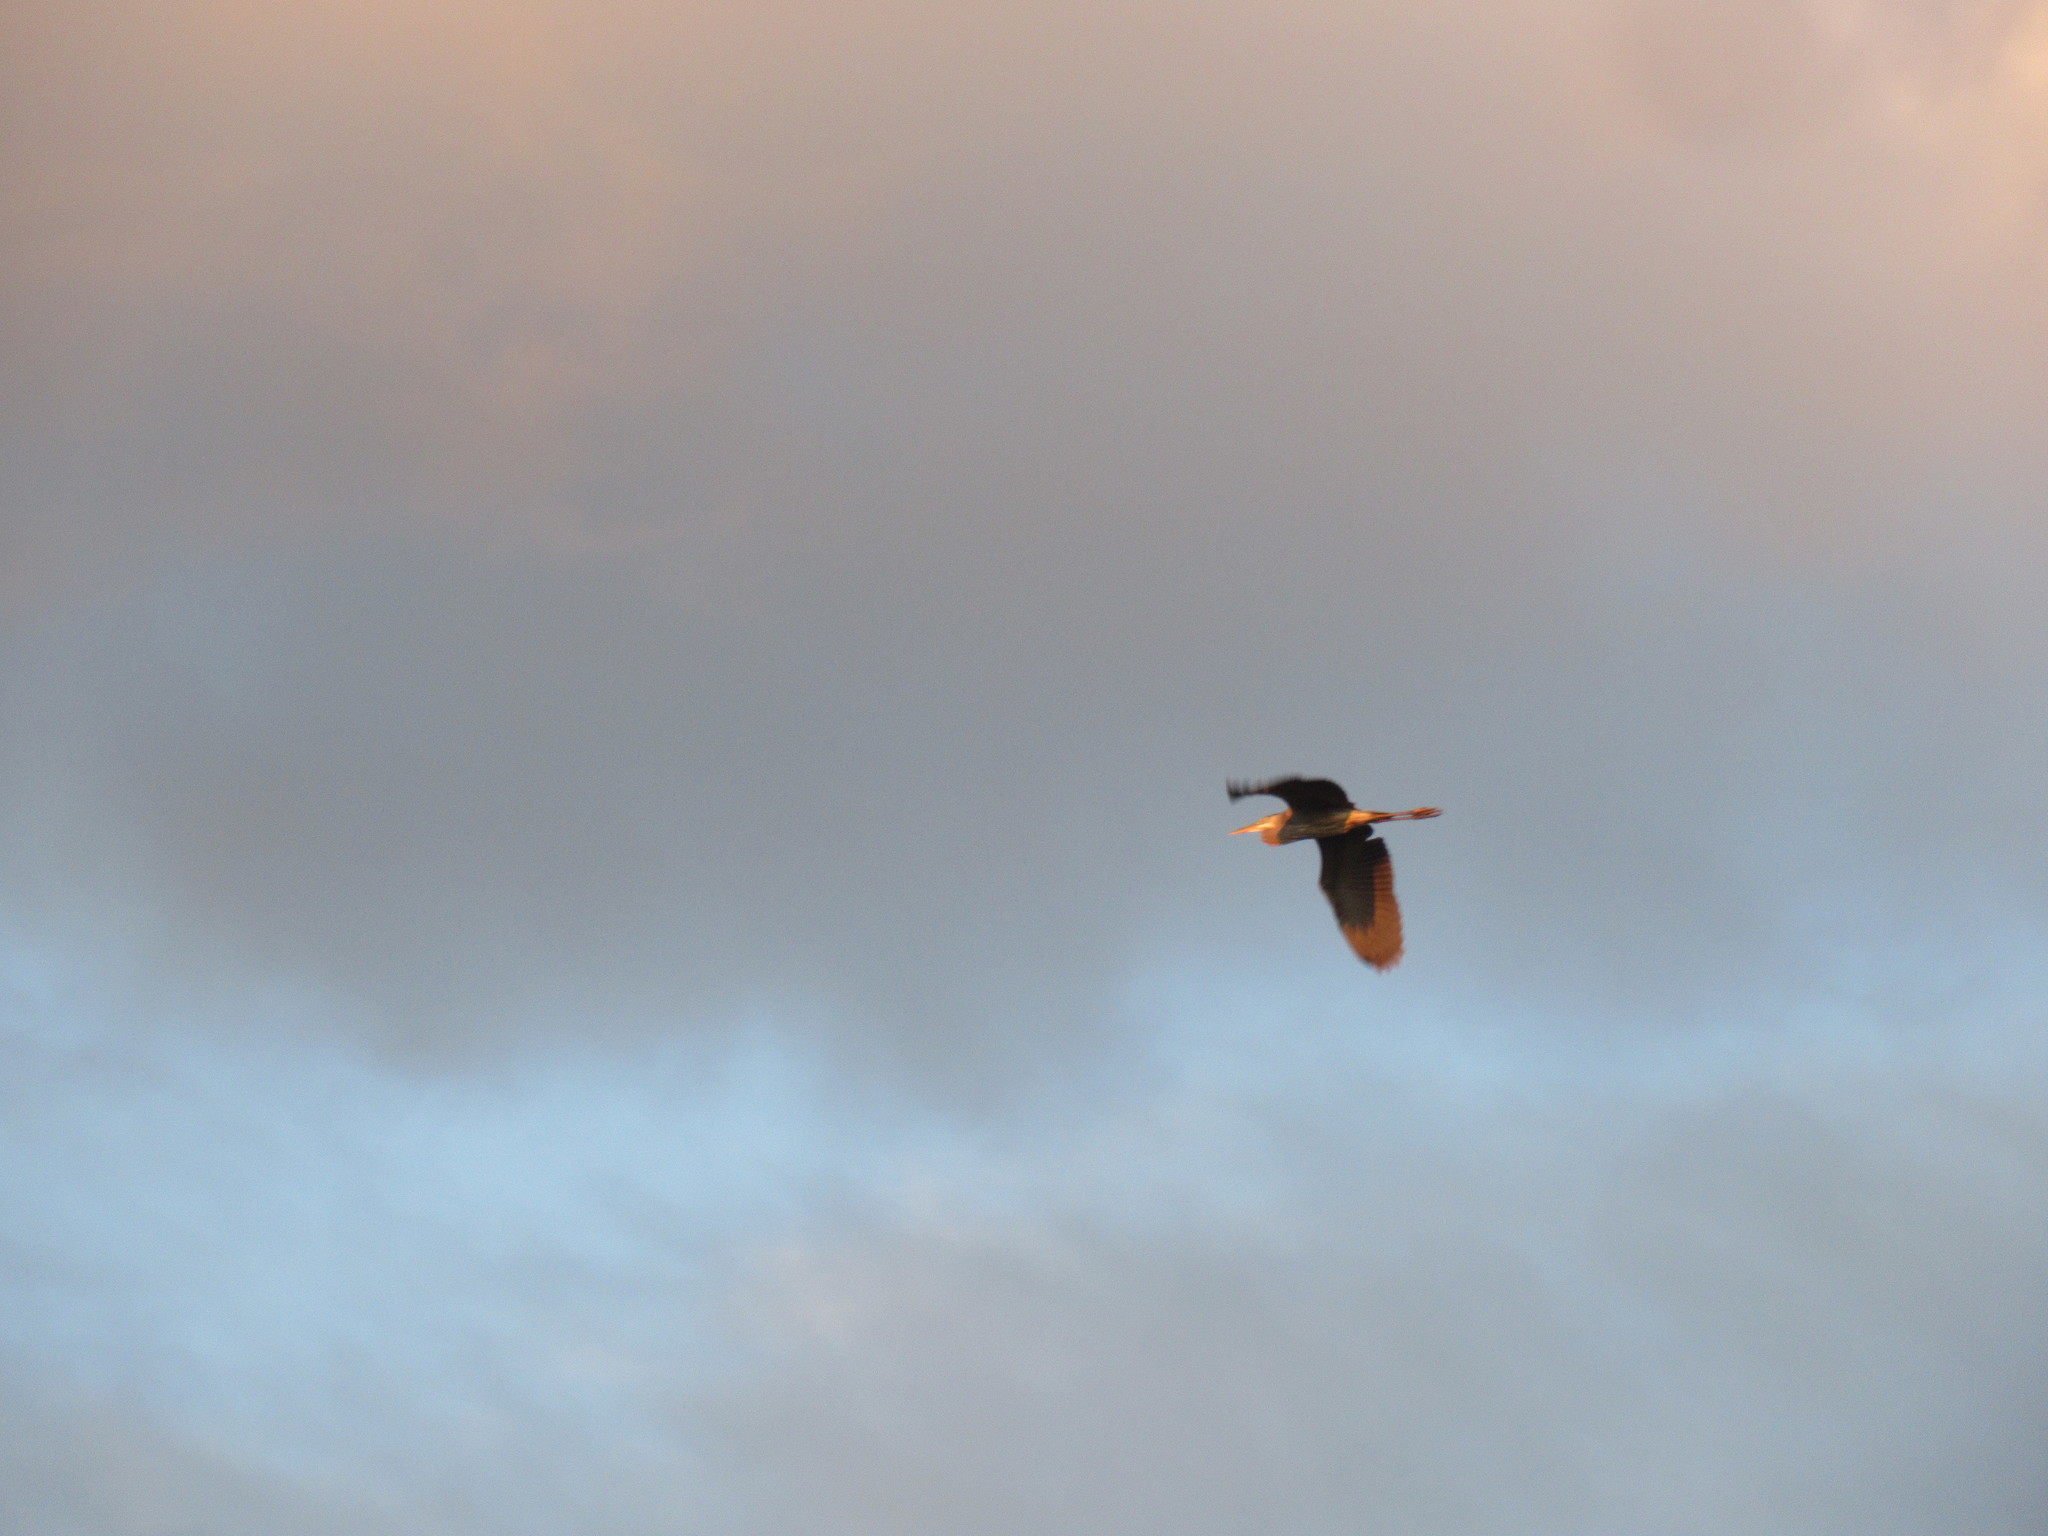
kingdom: Animalia
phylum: Chordata
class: Aves
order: Pelecaniformes
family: Ardeidae
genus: Ardea
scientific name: Ardea herodias
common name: Great blue heron
